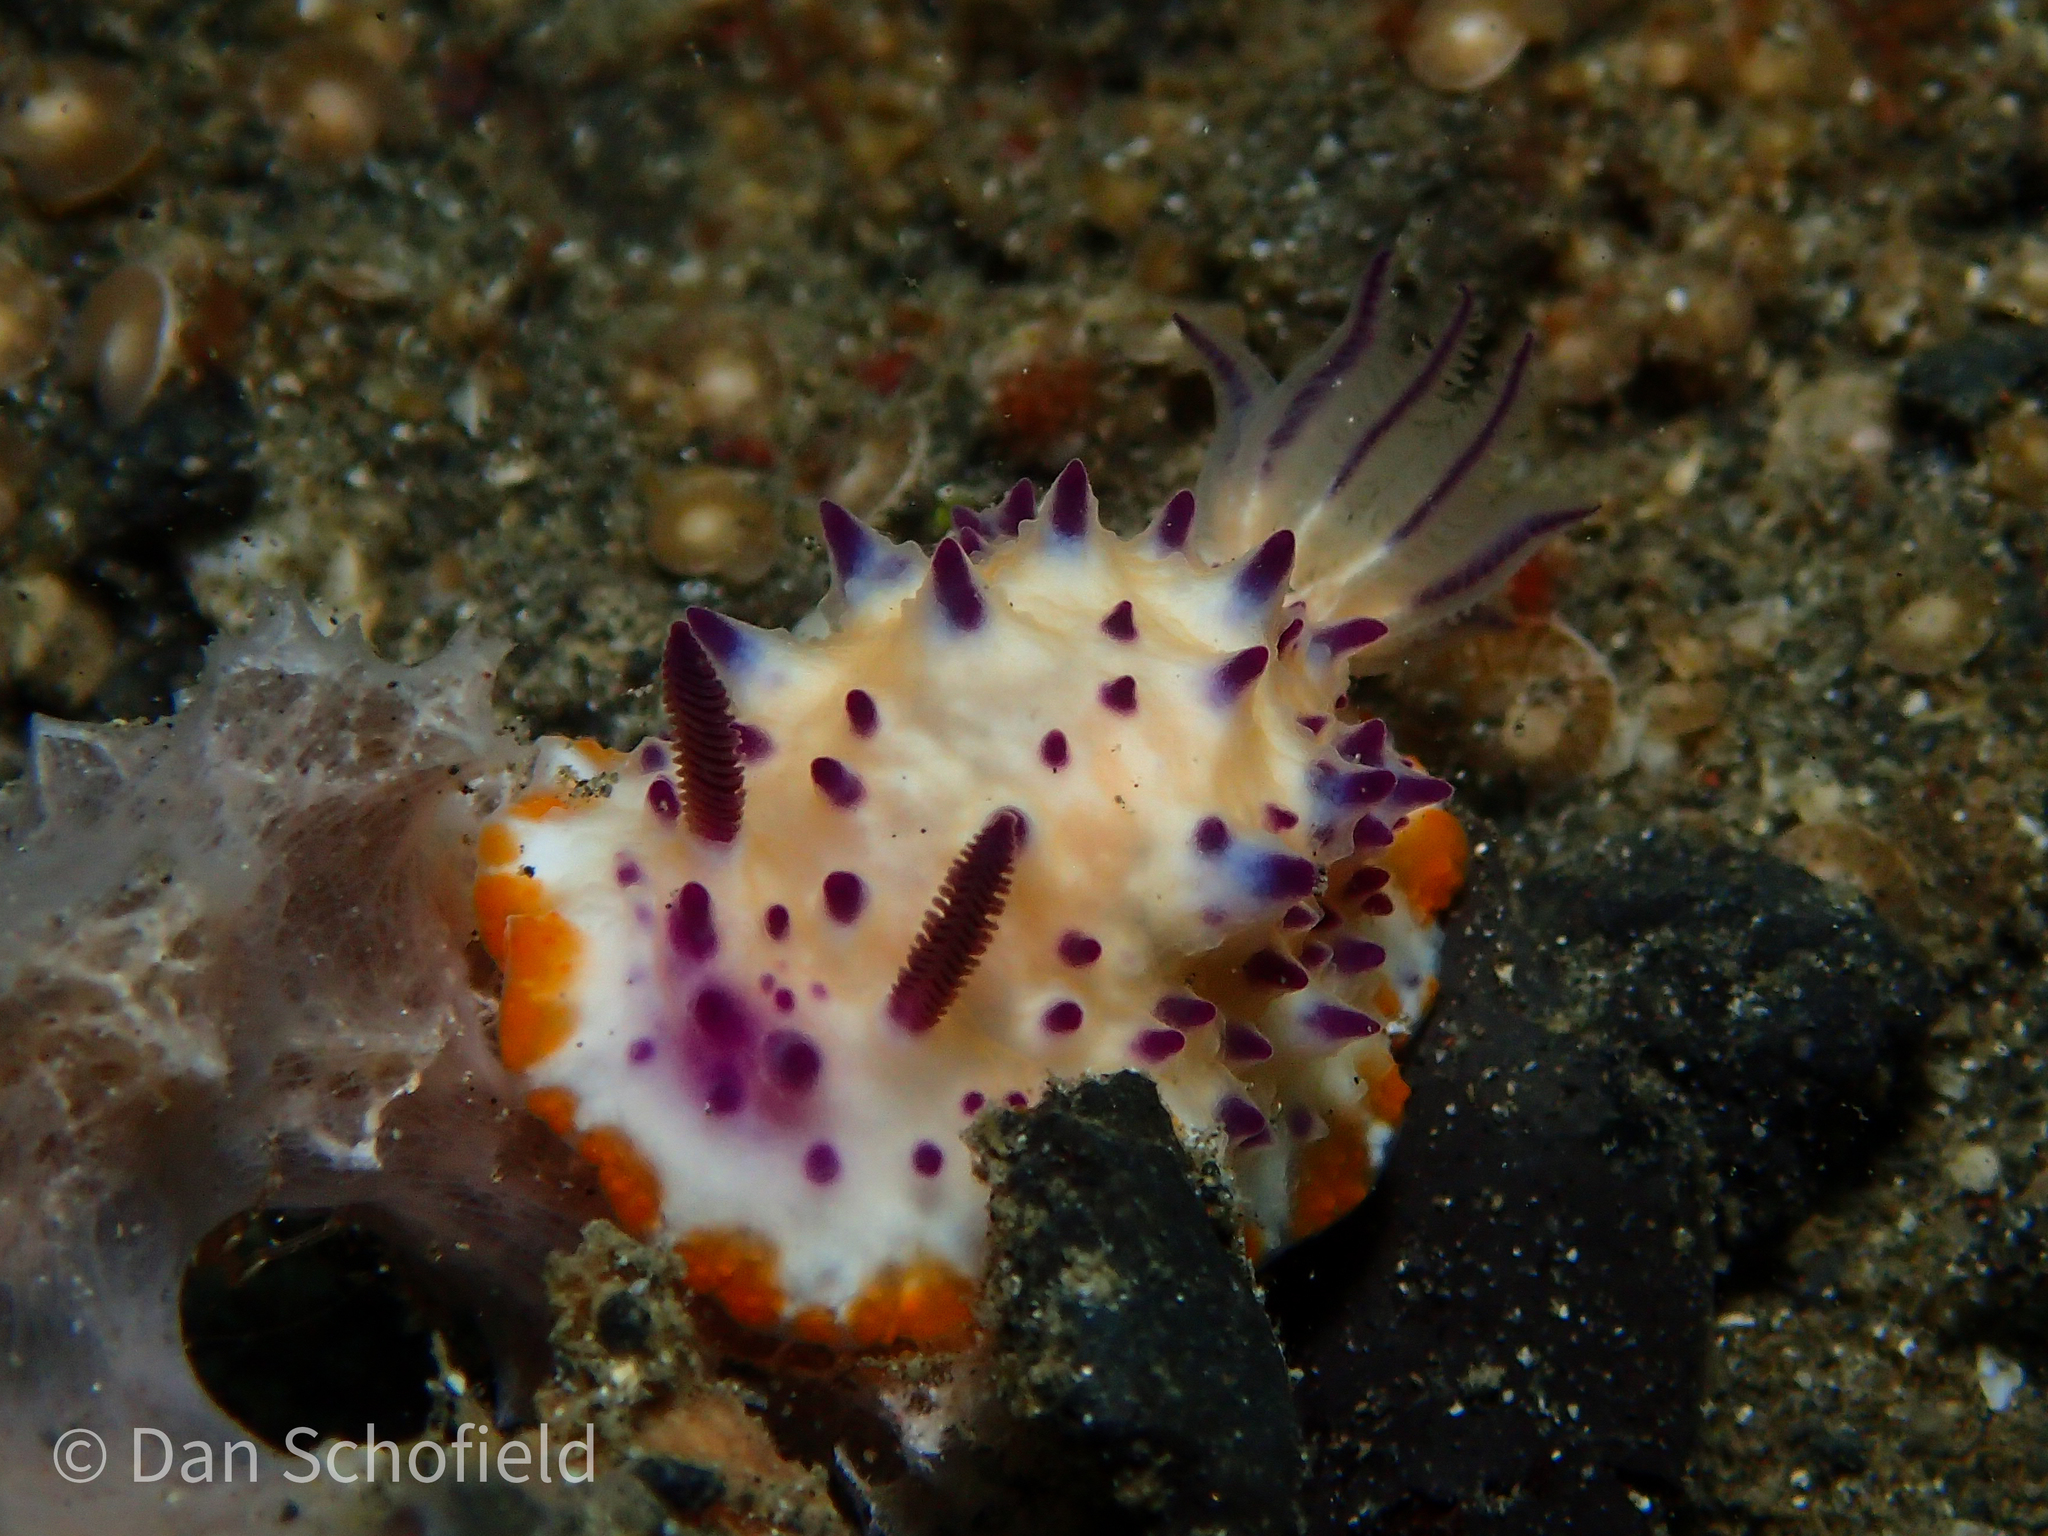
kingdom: Animalia
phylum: Mollusca
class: Gastropoda
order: Nudibranchia
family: Chromodorididae
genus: Mexichromis
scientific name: Mexichromis multituberculata
